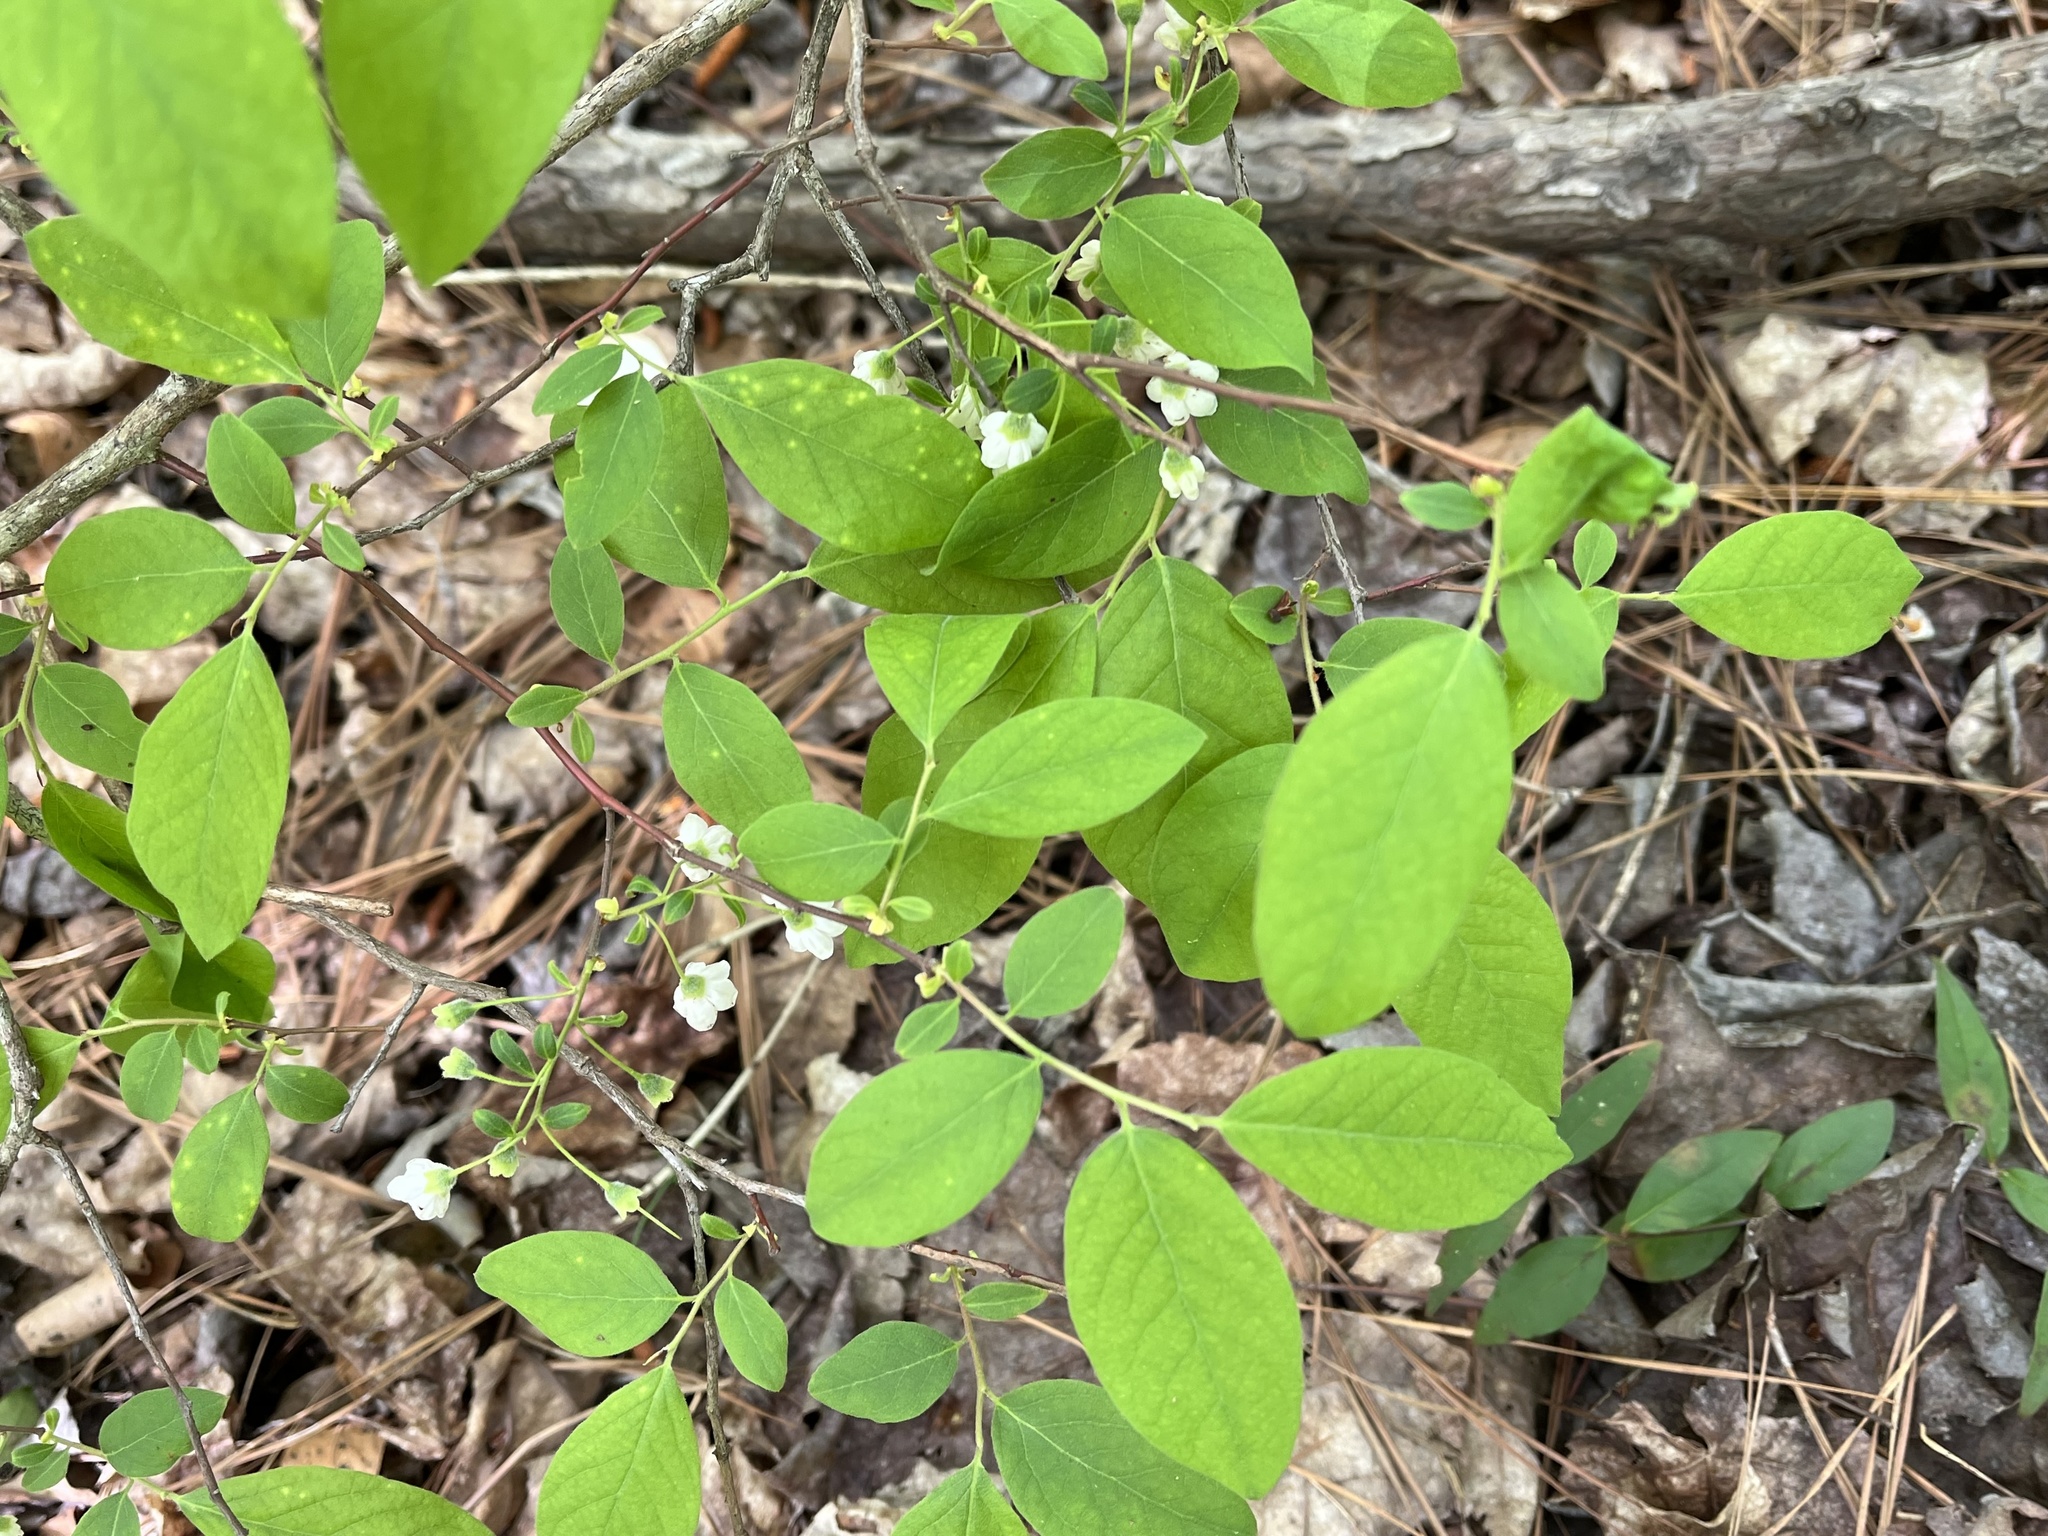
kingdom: Plantae
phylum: Tracheophyta
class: Magnoliopsida
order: Ericales
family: Ericaceae
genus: Vaccinium
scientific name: Vaccinium stamineum
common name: Deerberry
